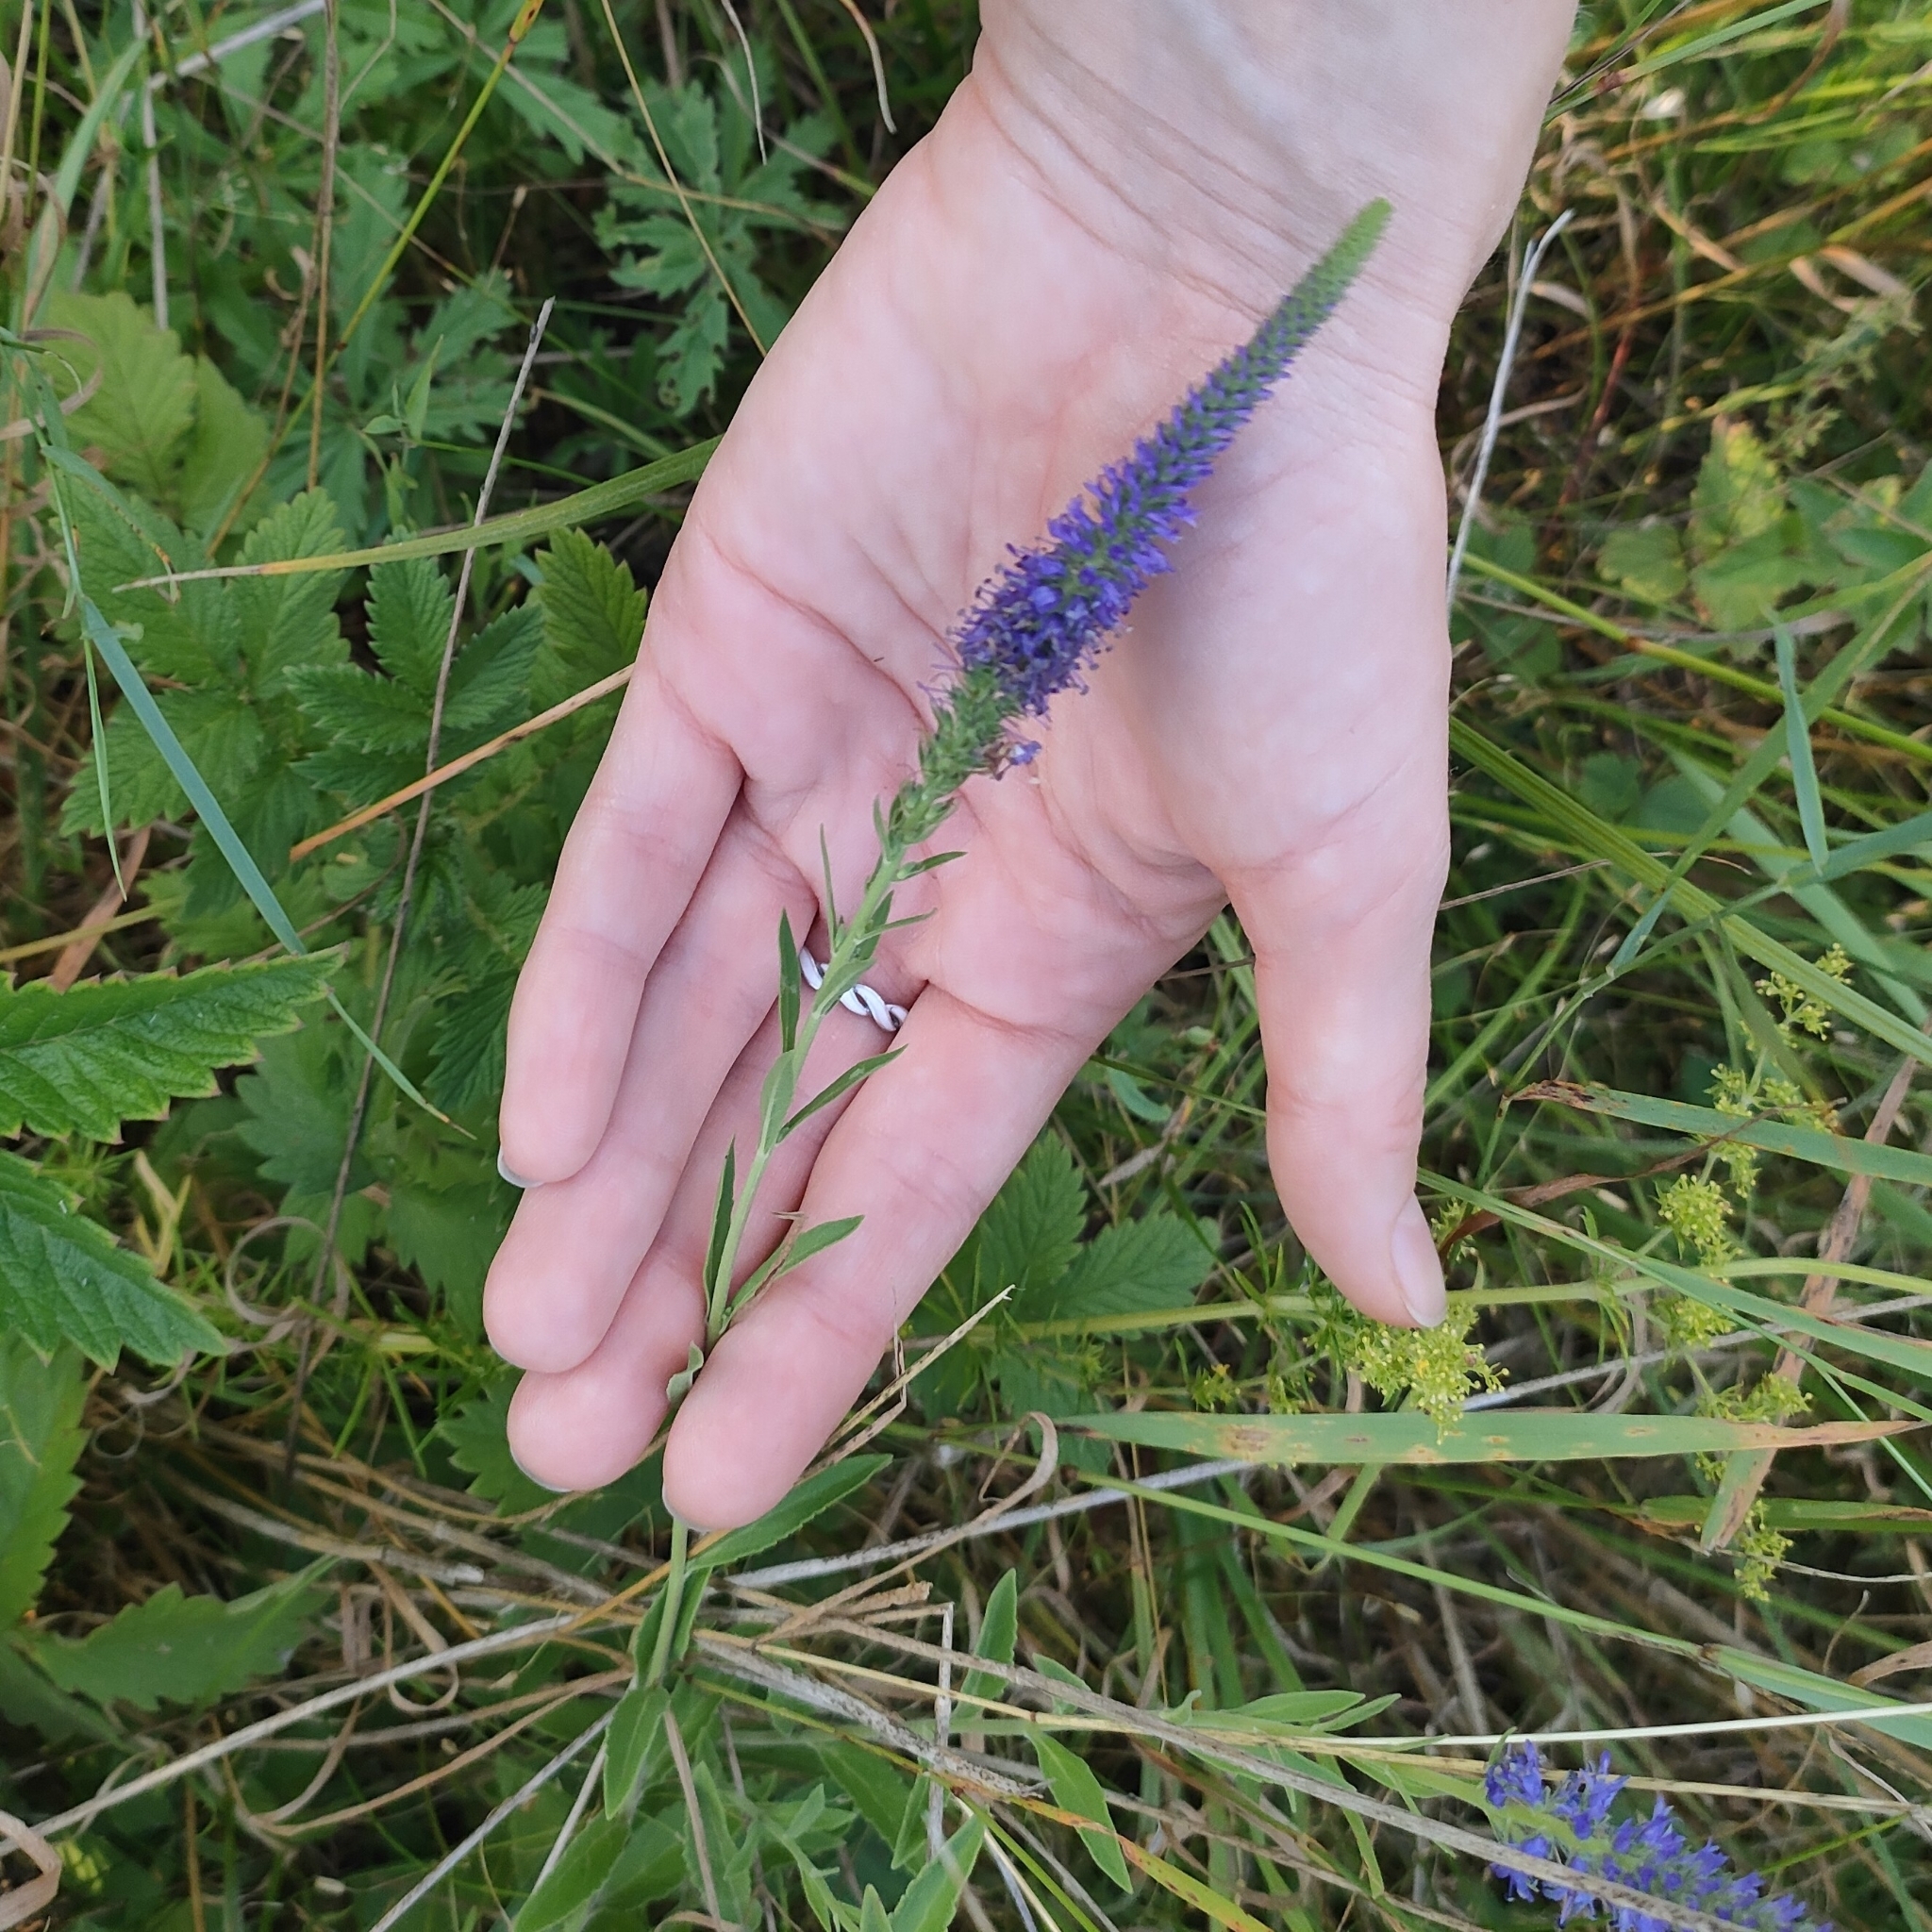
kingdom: Plantae
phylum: Tracheophyta
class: Magnoliopsida
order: Lamiales
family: Plantaginaceae
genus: Veronica
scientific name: Veronica spicata
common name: Spiked speedwell
